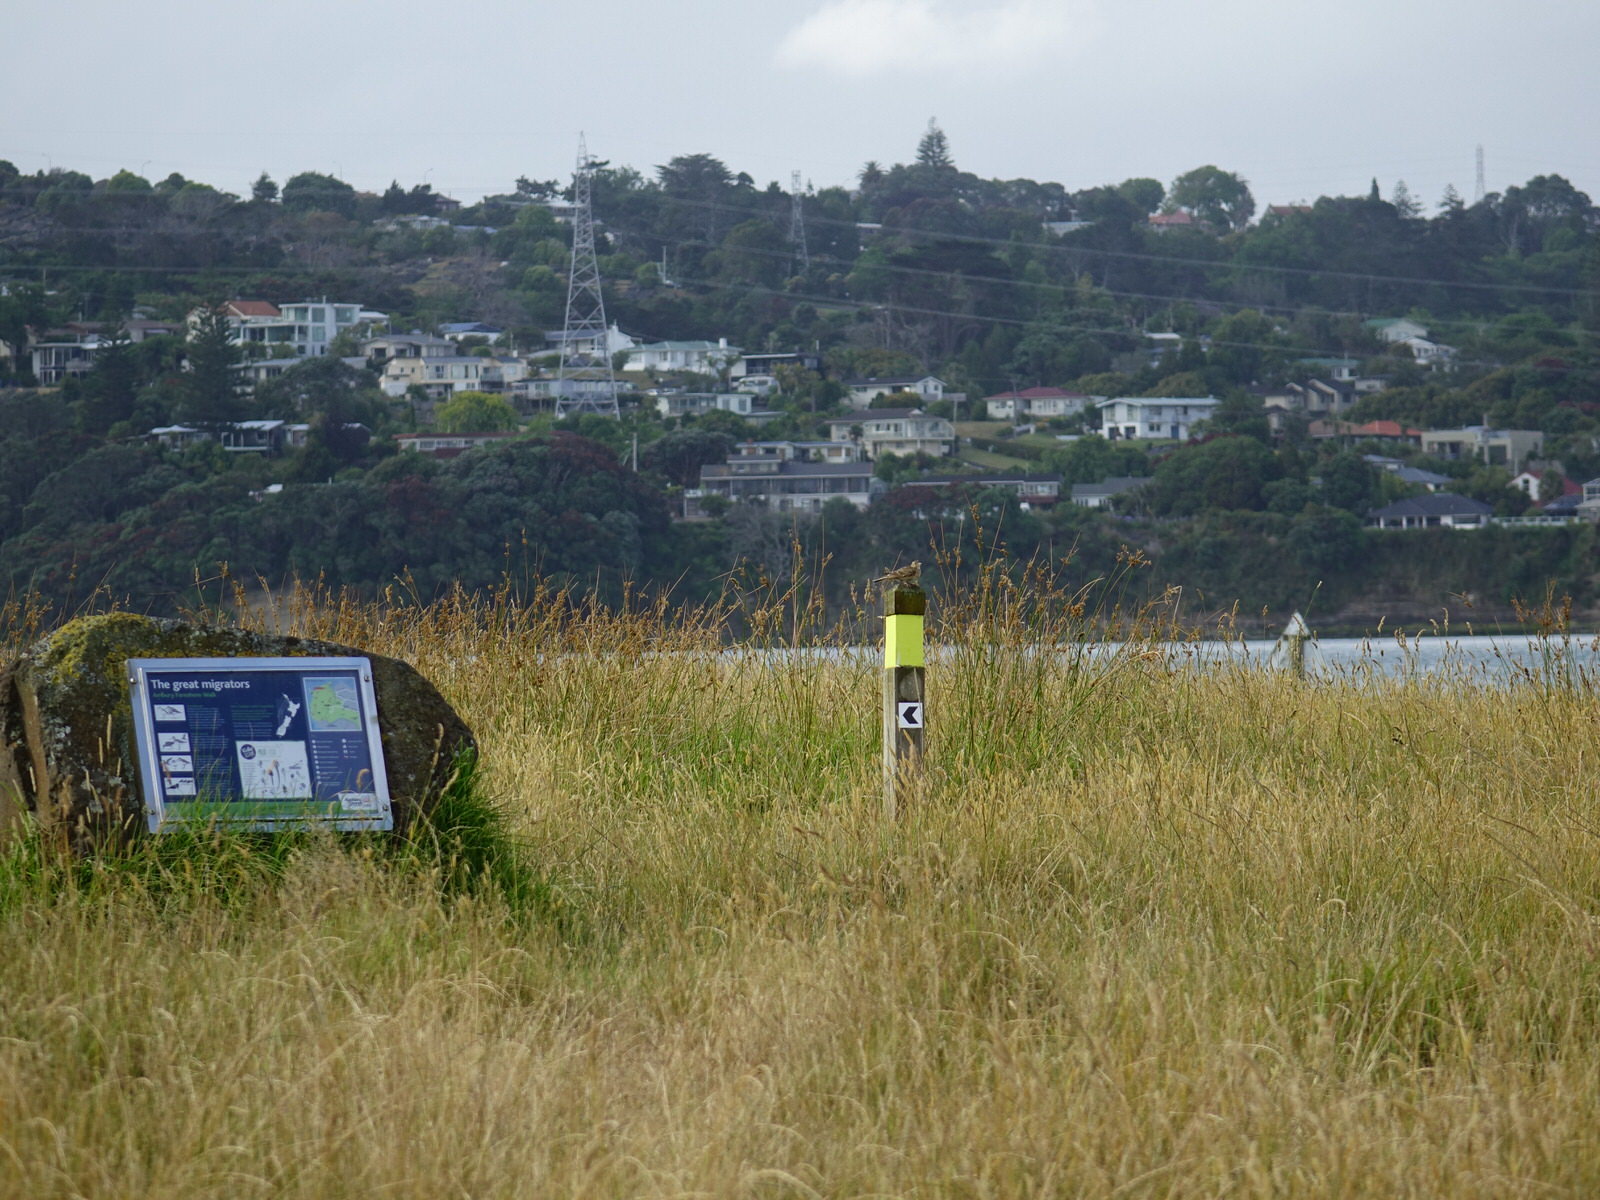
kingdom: Animalia
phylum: Chordata
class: Aves
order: Passeriformes
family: Alaudidae
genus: Alauda
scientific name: Alauda arvensis
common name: Eurasian skylark
